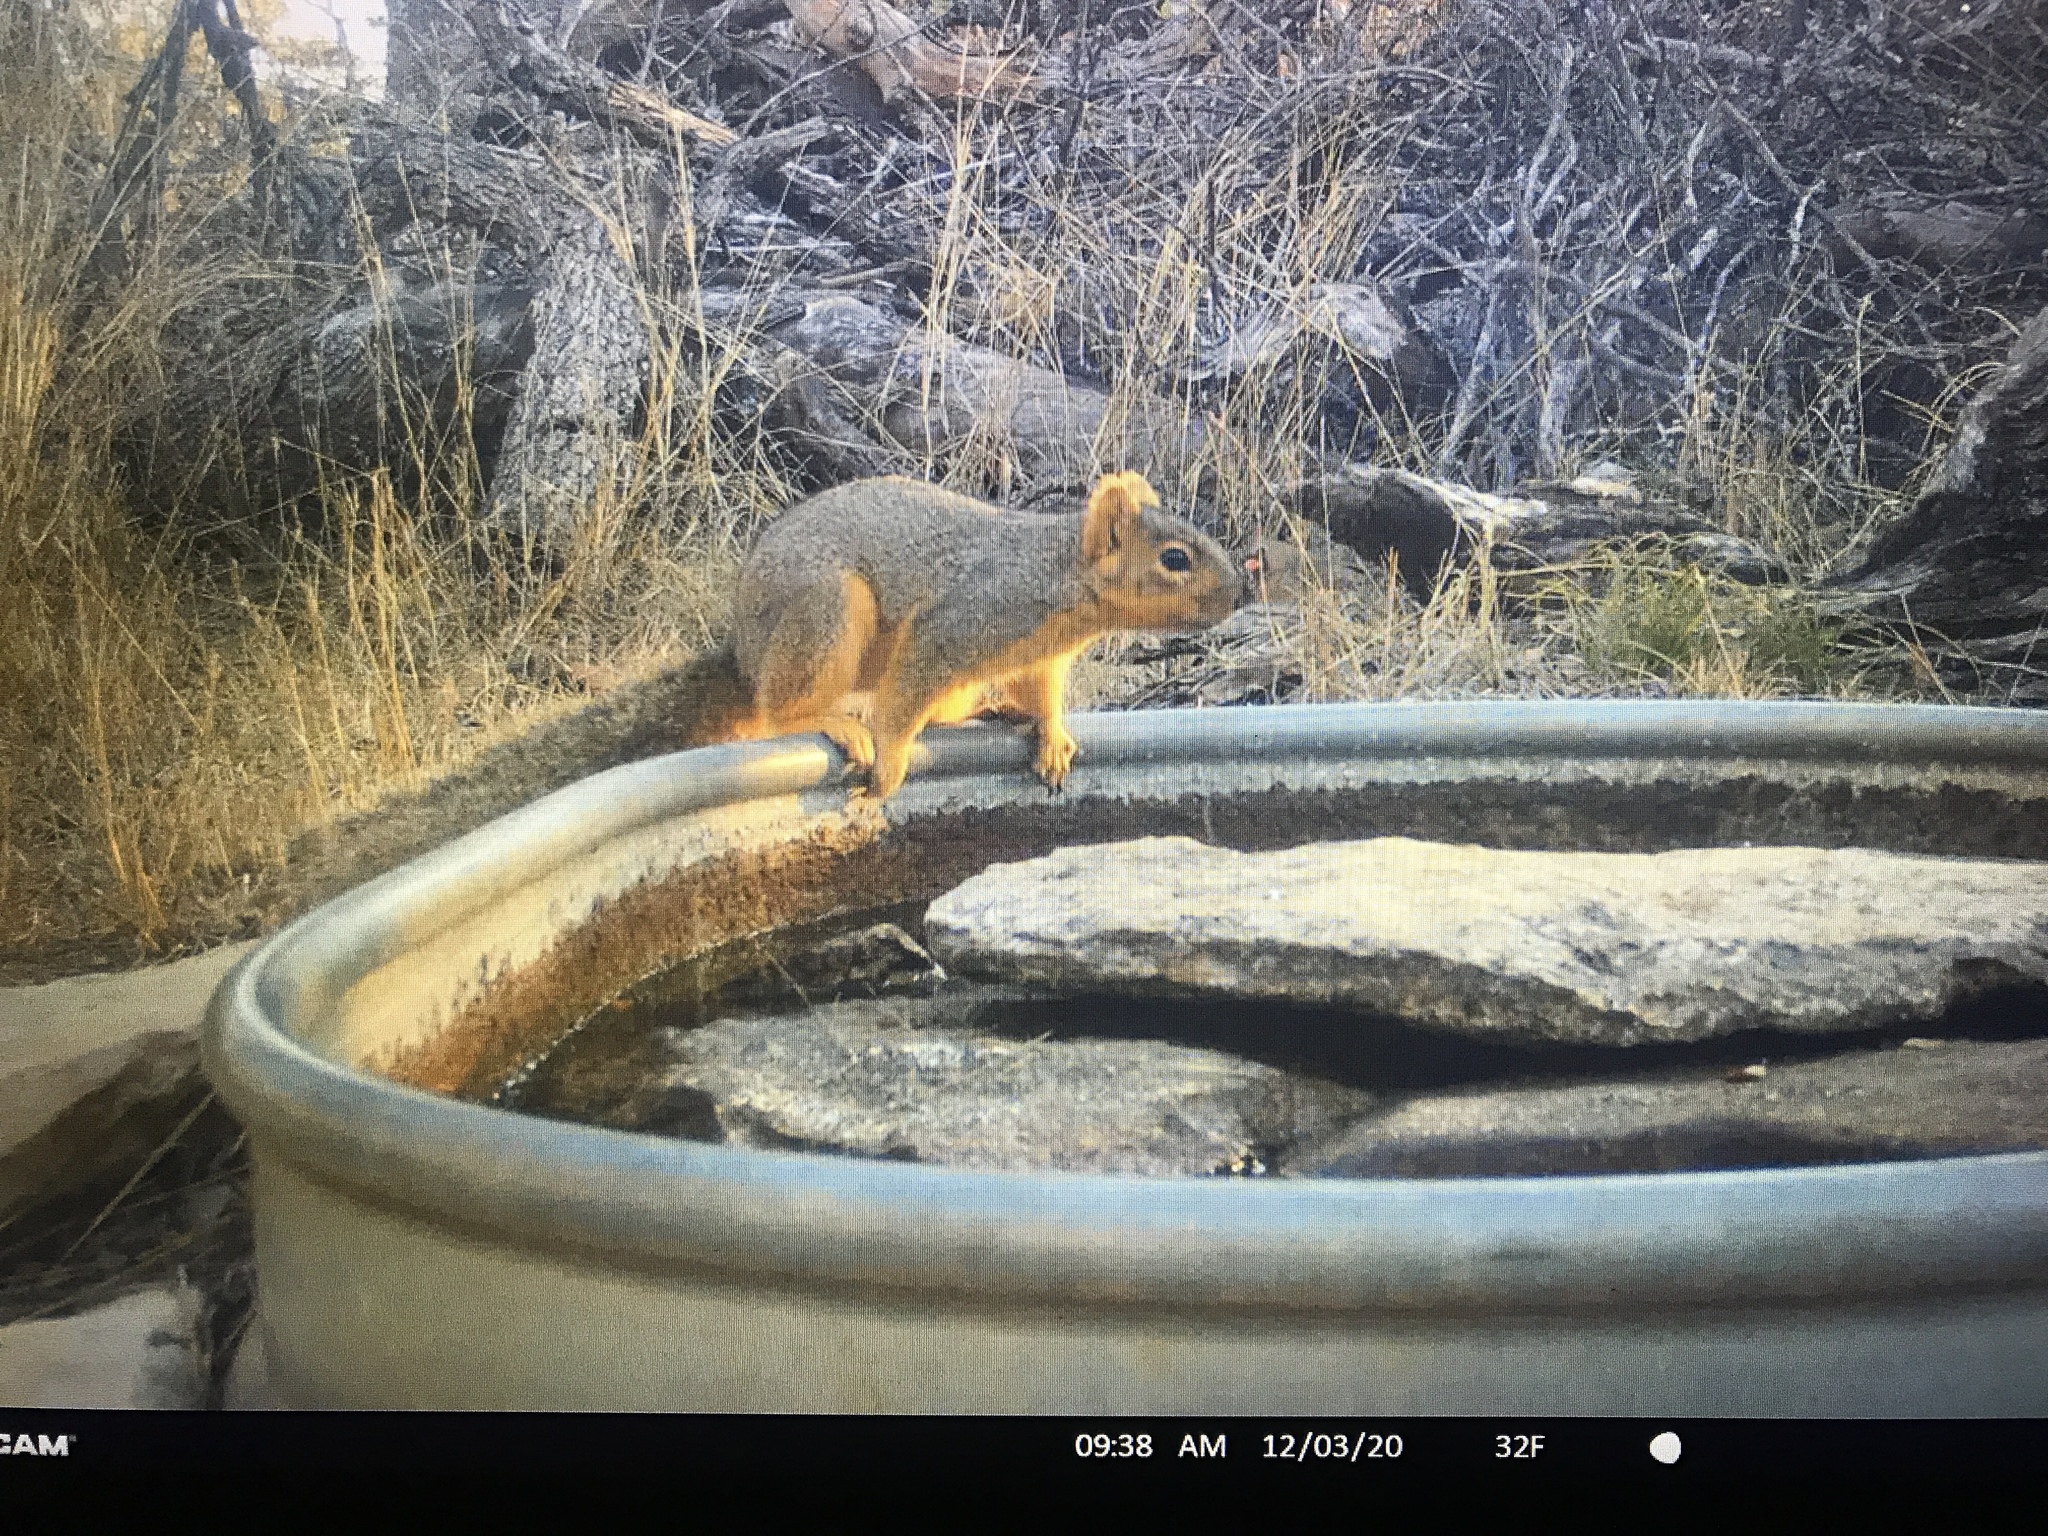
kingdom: Animalia
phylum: Chordata
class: Mammalia
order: Rodentia
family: Sciuridae
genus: Sciurus
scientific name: Sciurus niger
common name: Fox squirrel
